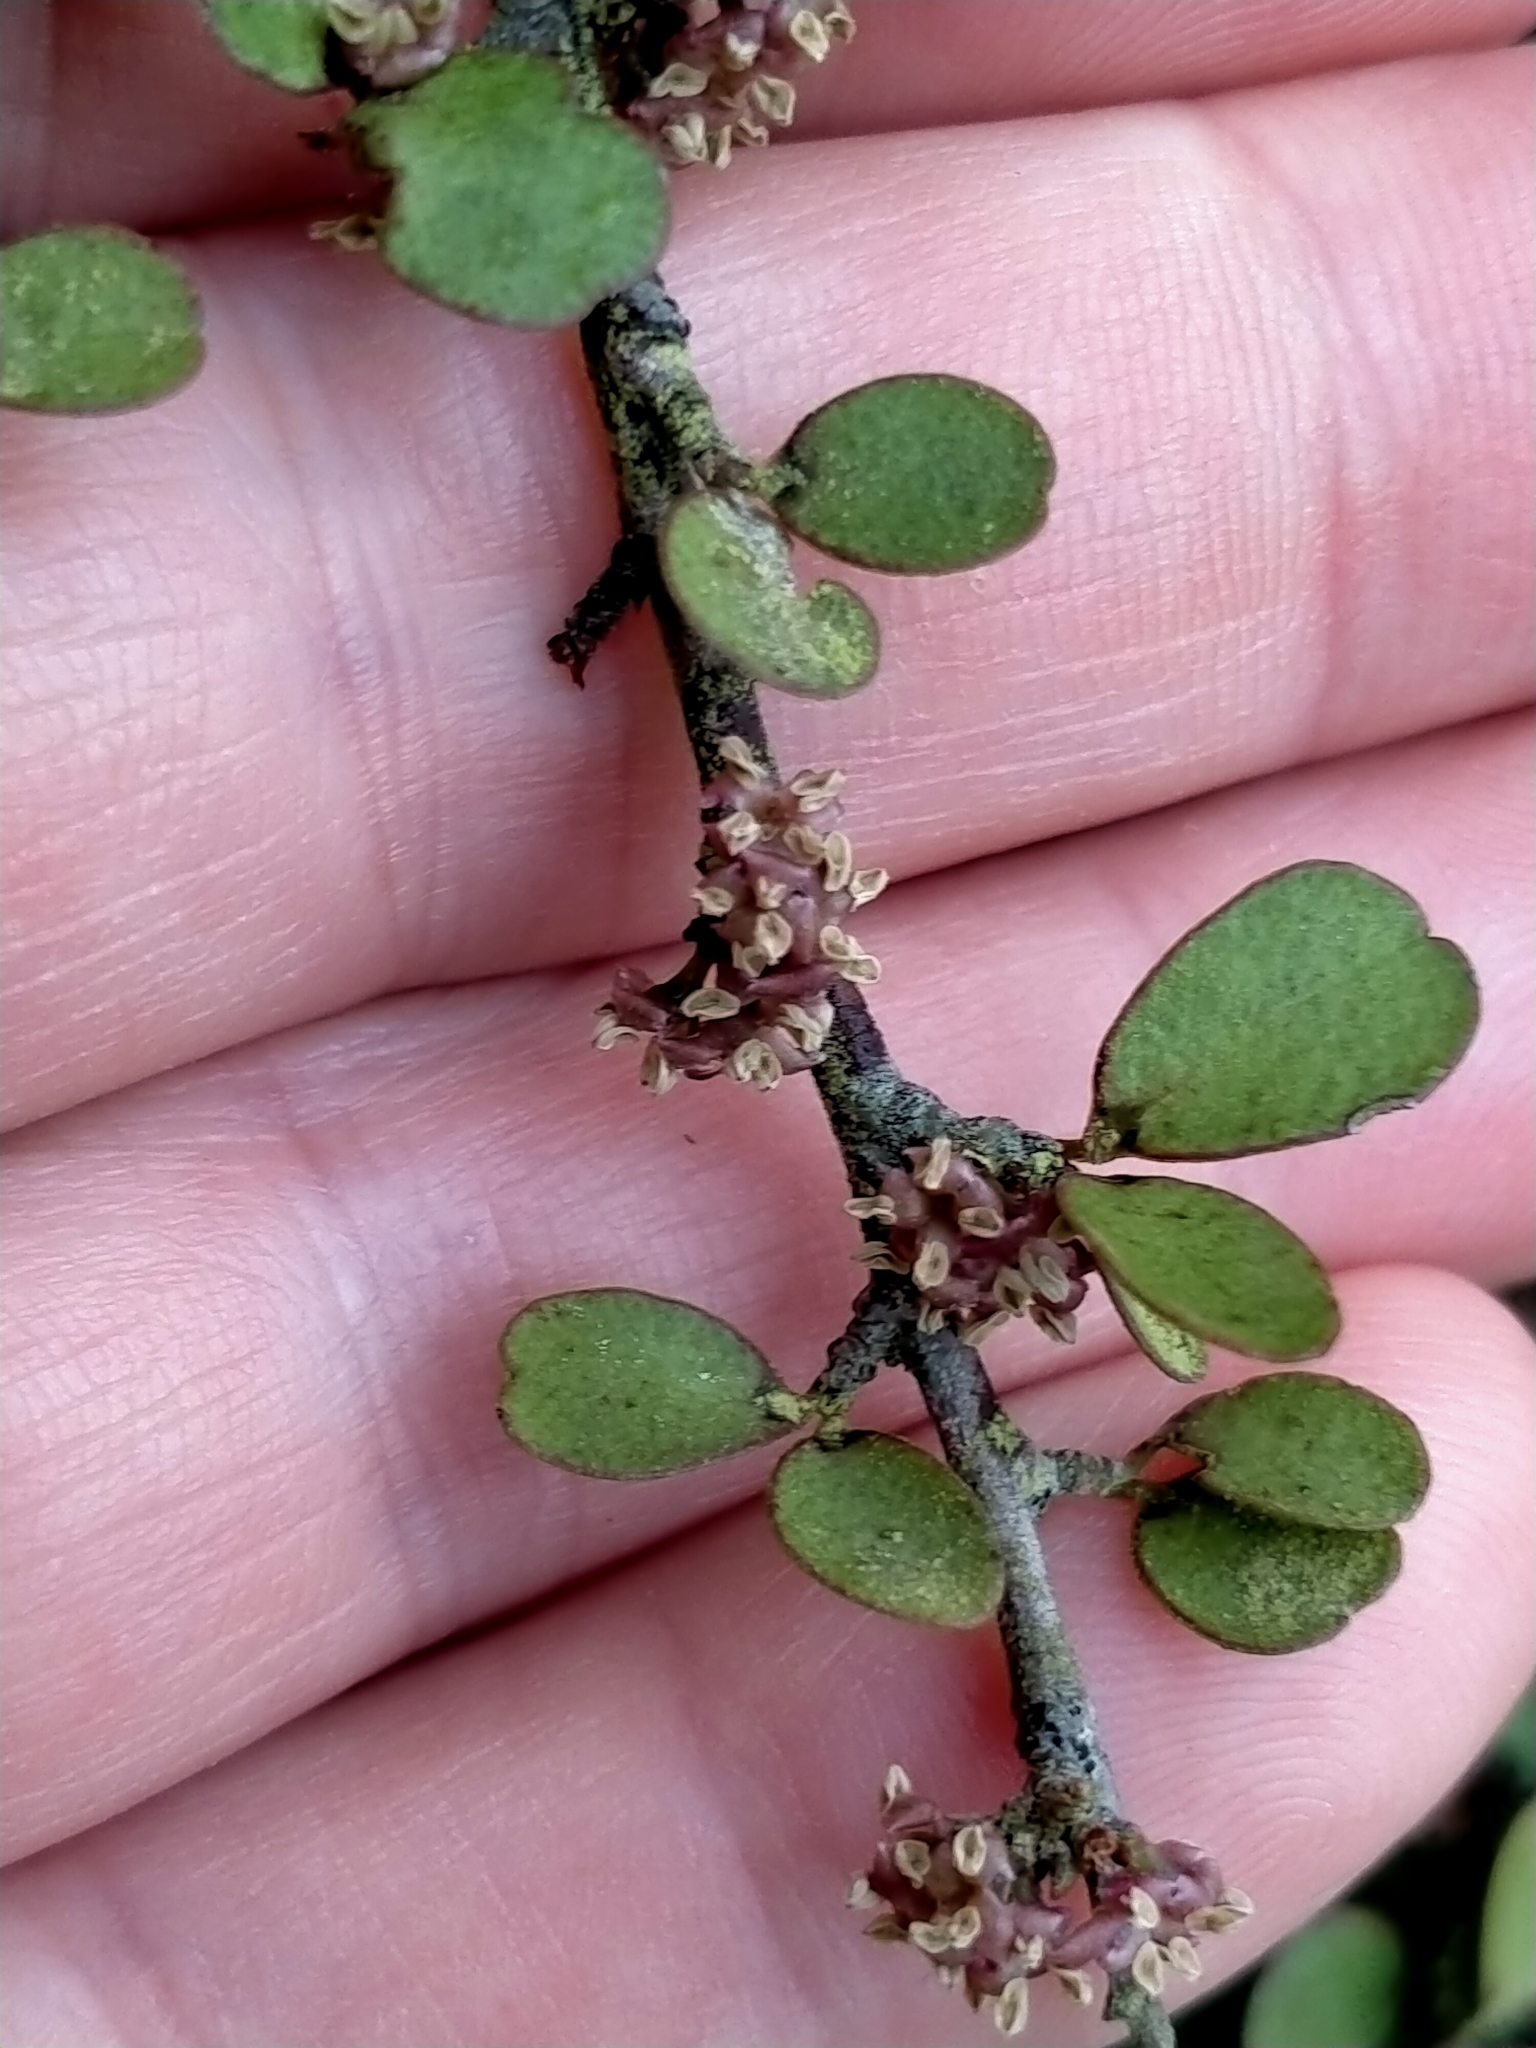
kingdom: Plantae
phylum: Tracheophyta
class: Magnoliopsida
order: Ericales
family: Primulaceae
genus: Myrsine
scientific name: Myrsine divaricata
